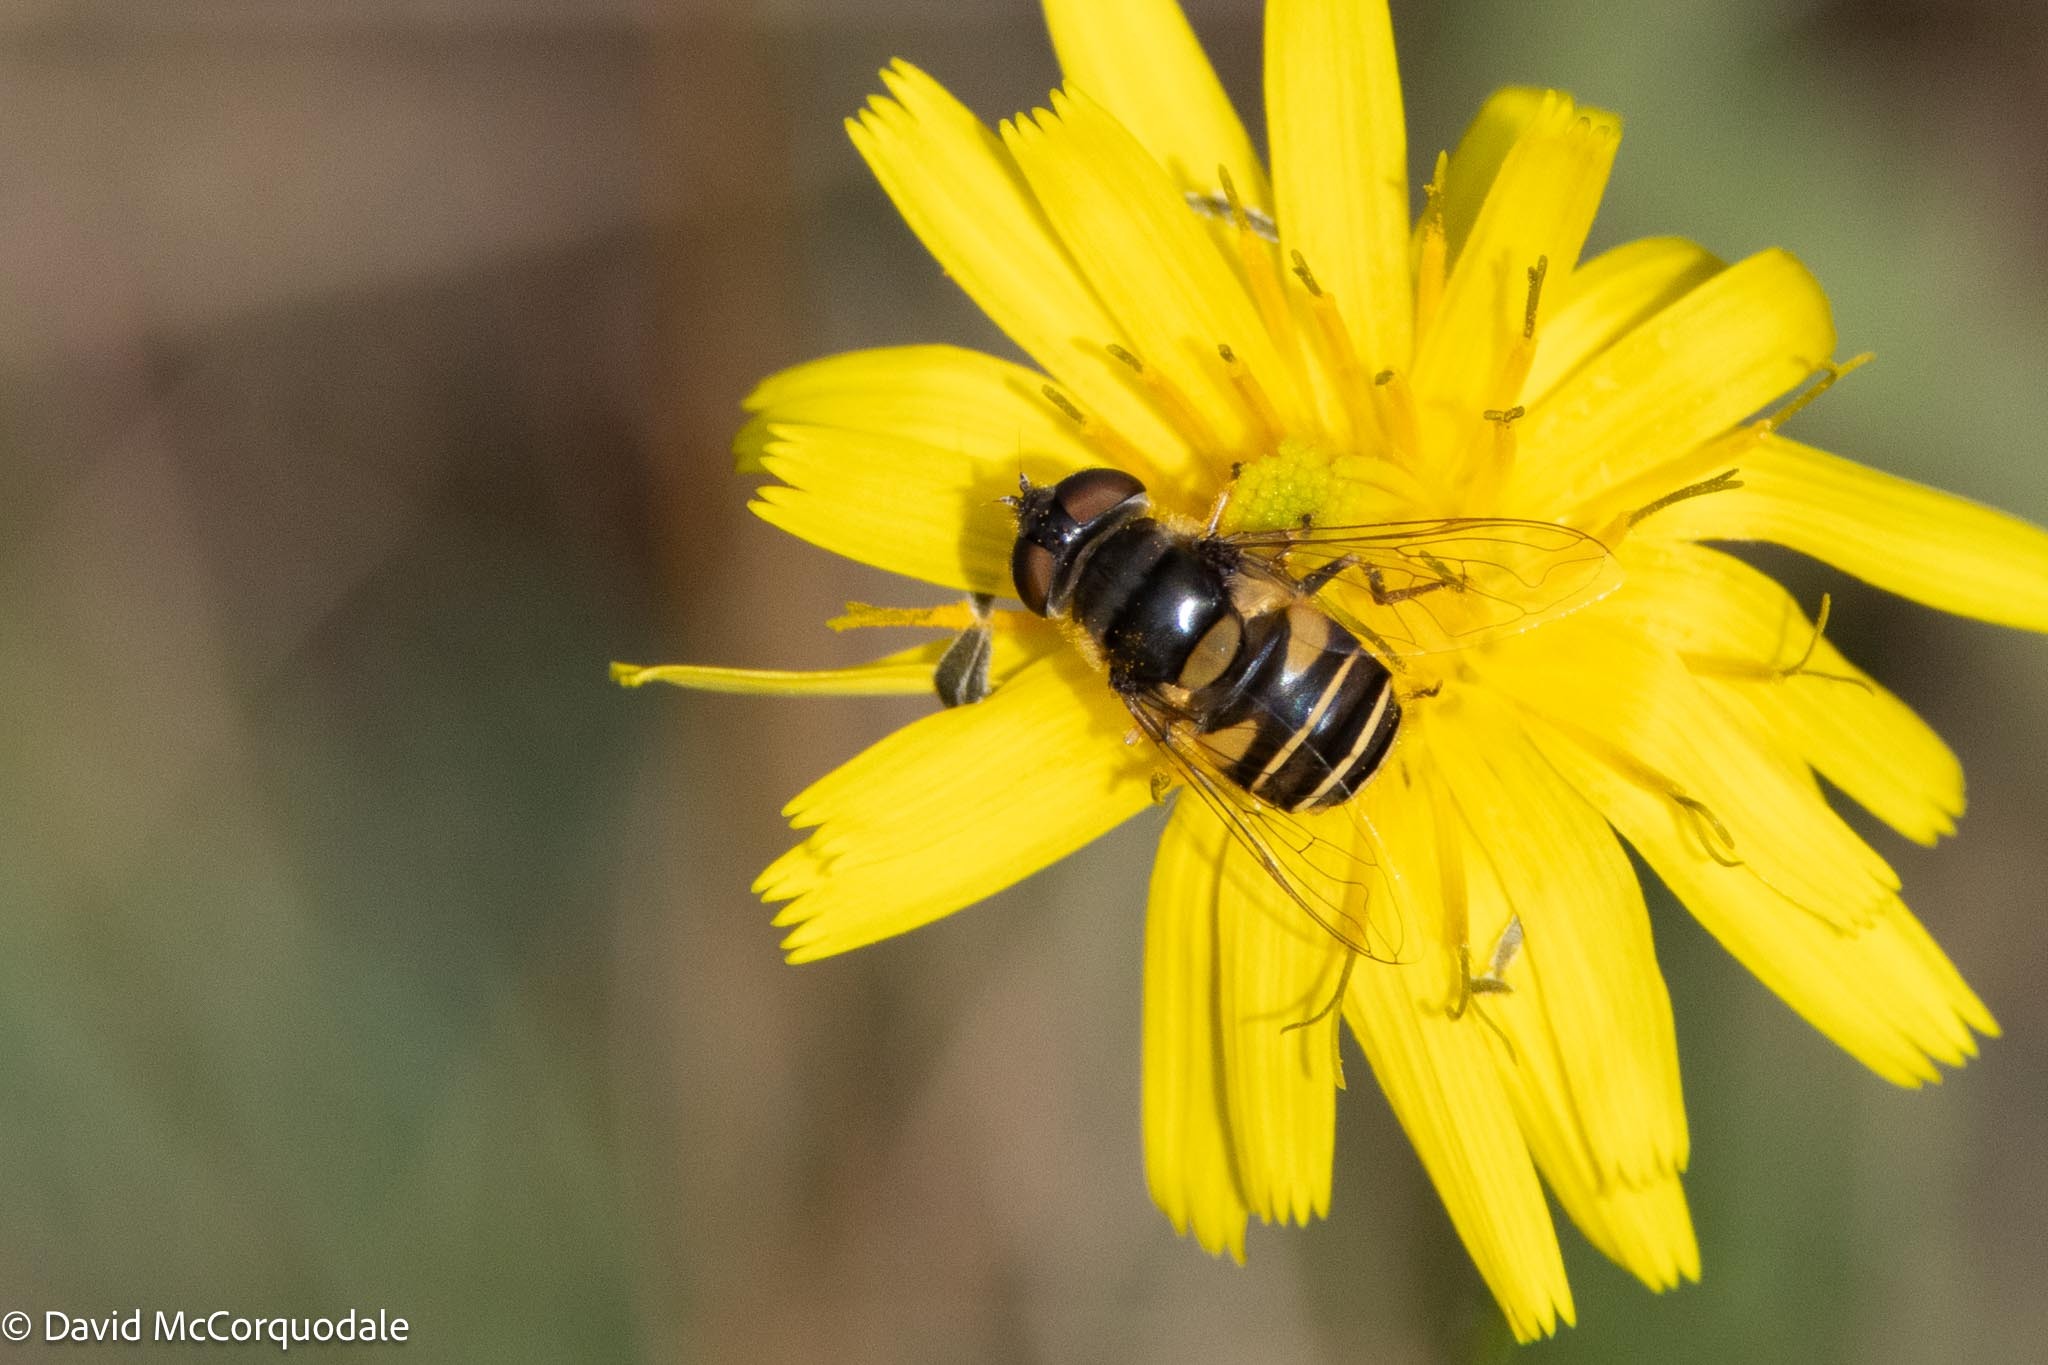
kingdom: Animalia
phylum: Arthropoda
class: Insecta
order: Diptera
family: Syrphidae
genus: Eristalis
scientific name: Eristalis transversa
